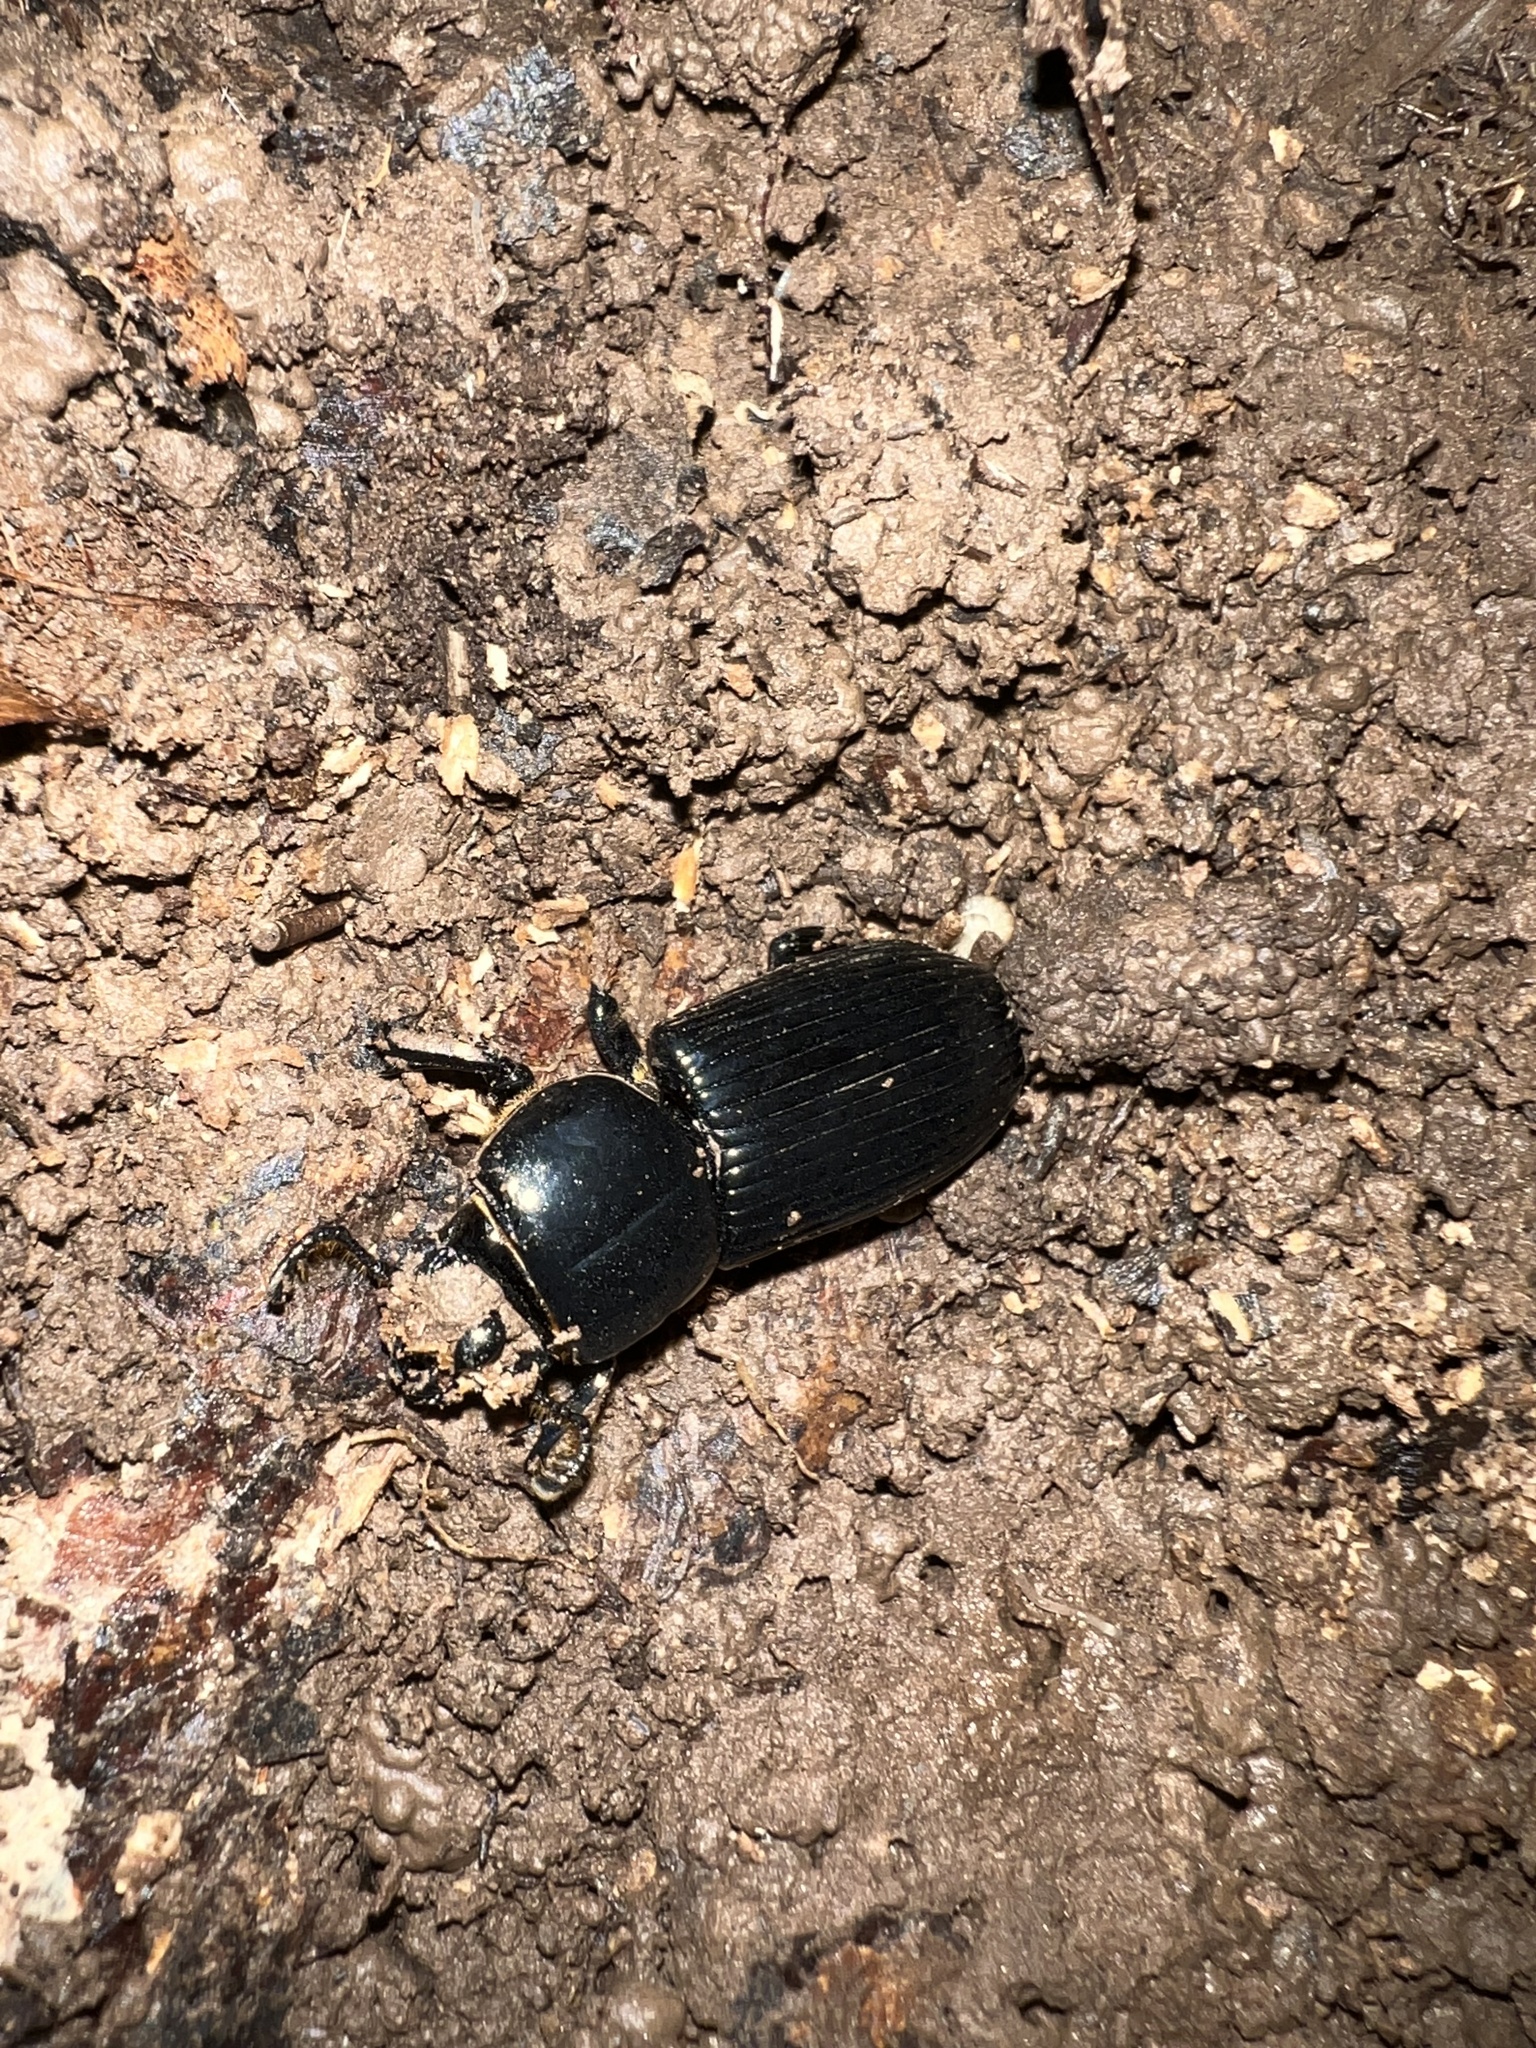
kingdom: Animalia
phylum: Arthropoda
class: Insecta
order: Coleoptera
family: Passalidae
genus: Odontotaenius
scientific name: Odontotaenius disjunctus
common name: Patent leather beetle
